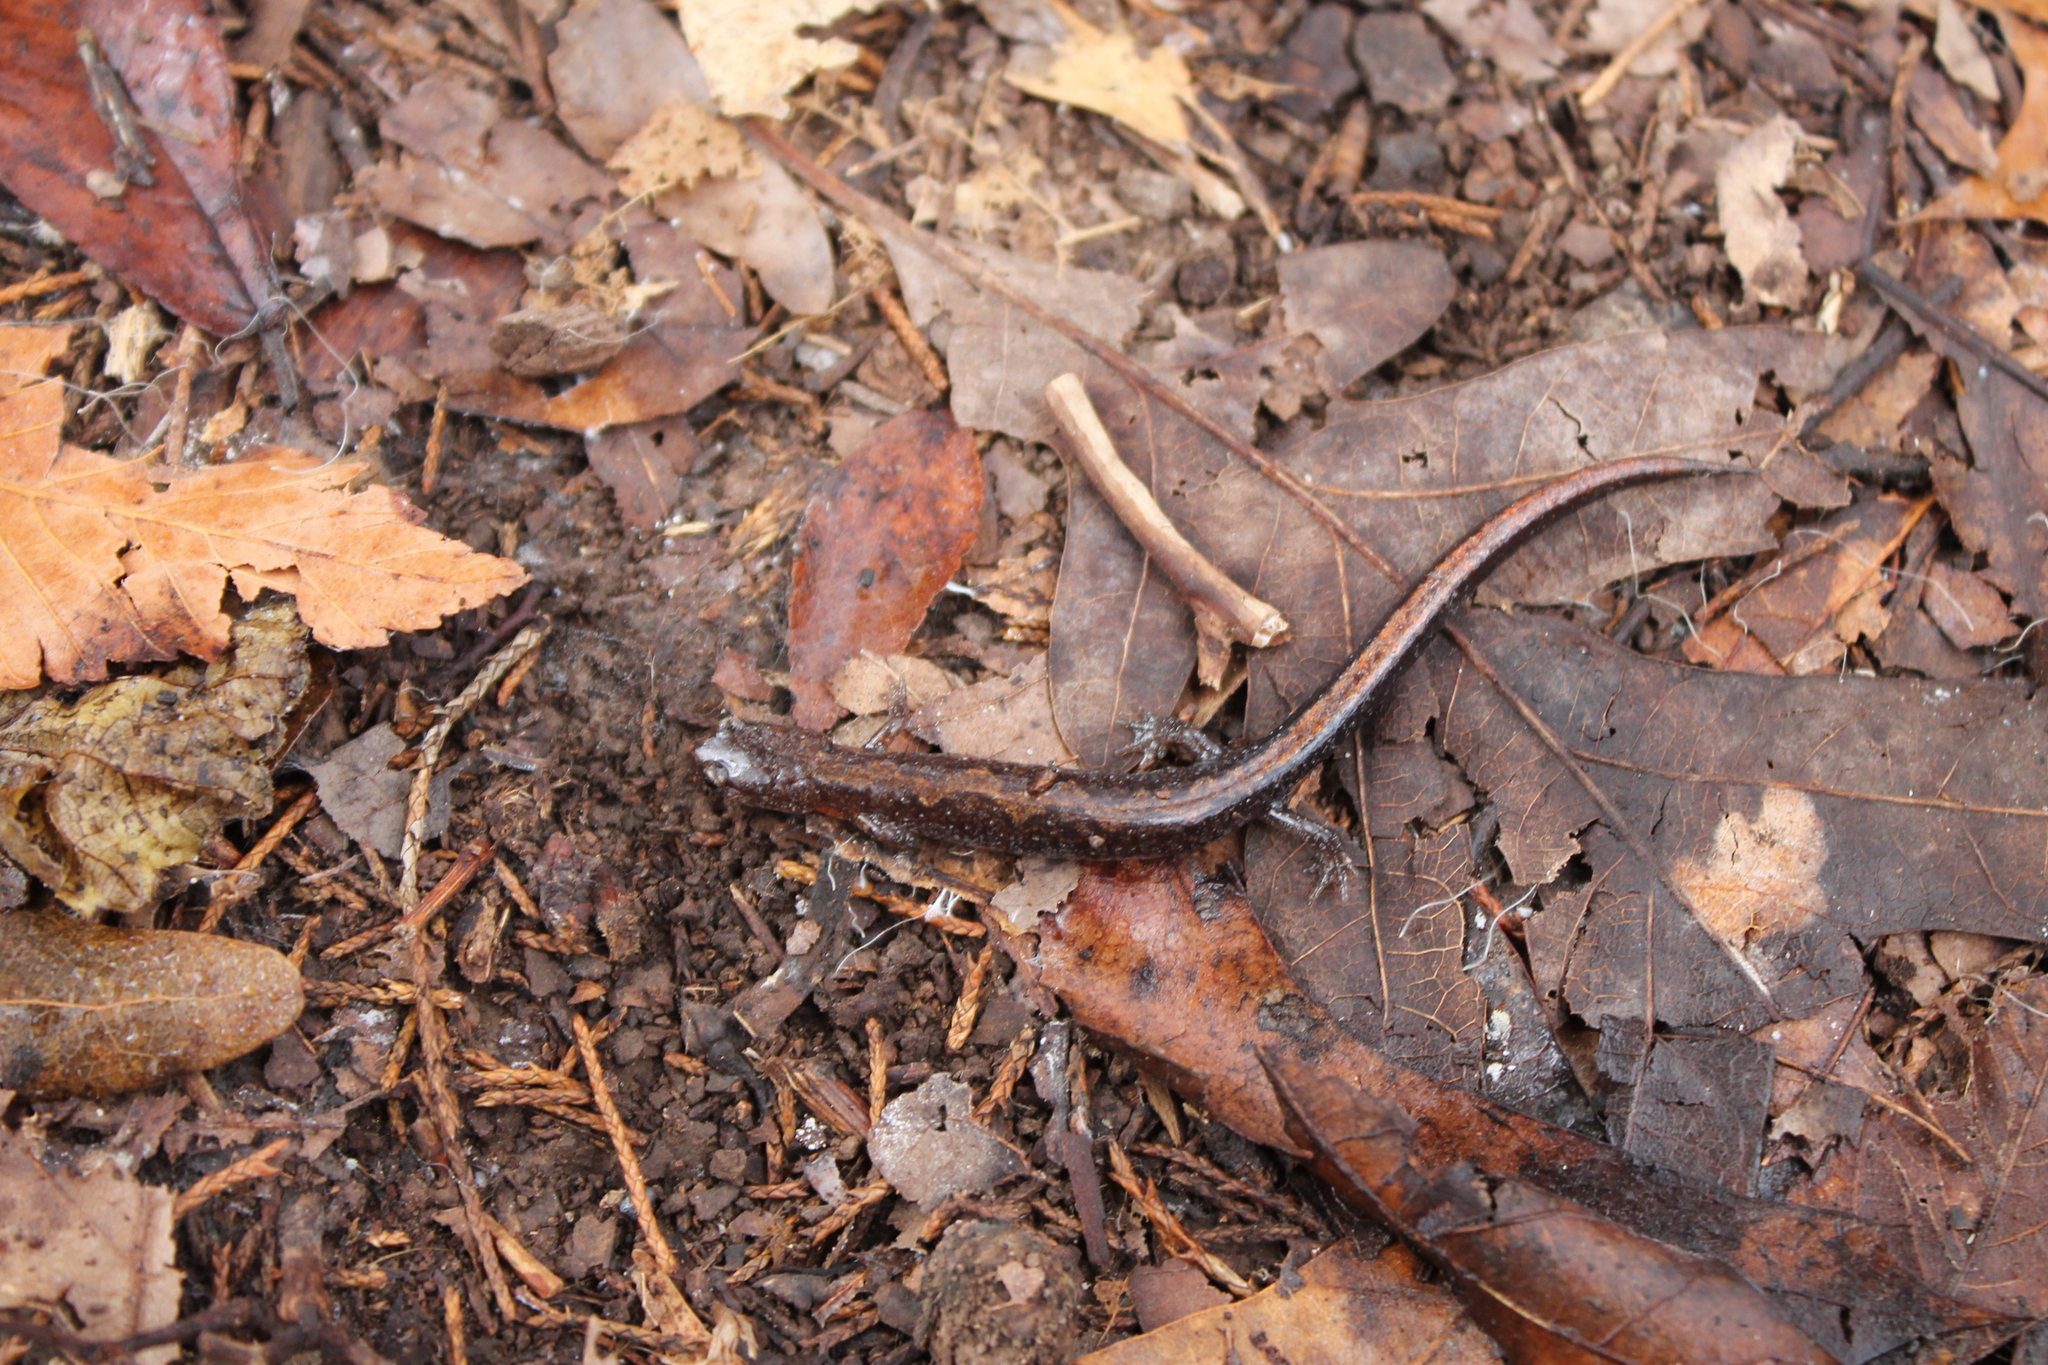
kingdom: Animalia
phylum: Chordata
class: Amphibia
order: Caudata
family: Plethodontidae
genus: Plethodon
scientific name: Plethodon dorsalis
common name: Northern zigzag salamander
